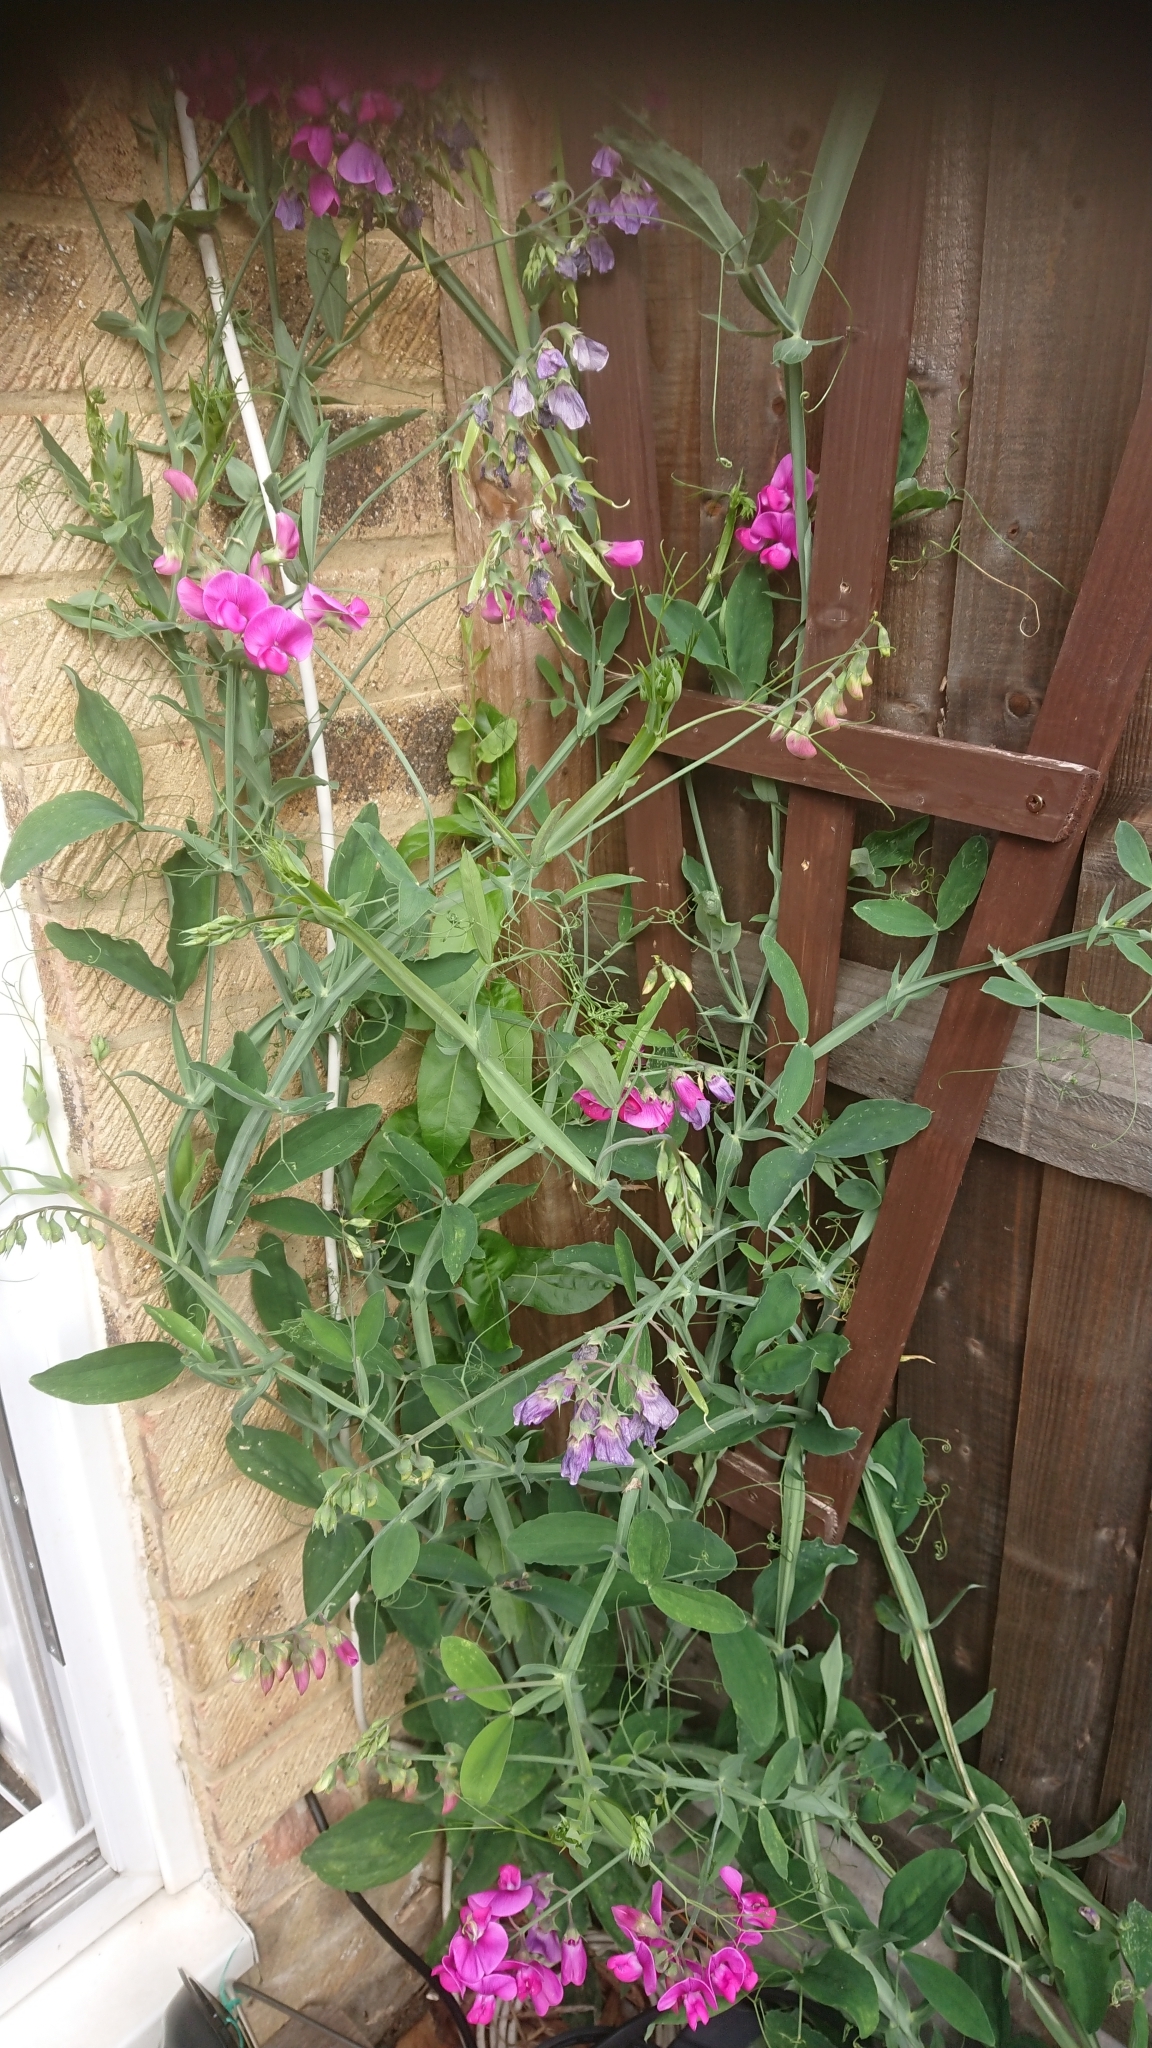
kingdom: Plantae
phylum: Tracheophyta
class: Magnoliopsida
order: Fabales
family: Fabaceae
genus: Lathyrus
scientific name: Lathyrus latifolius
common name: Perennial pea
